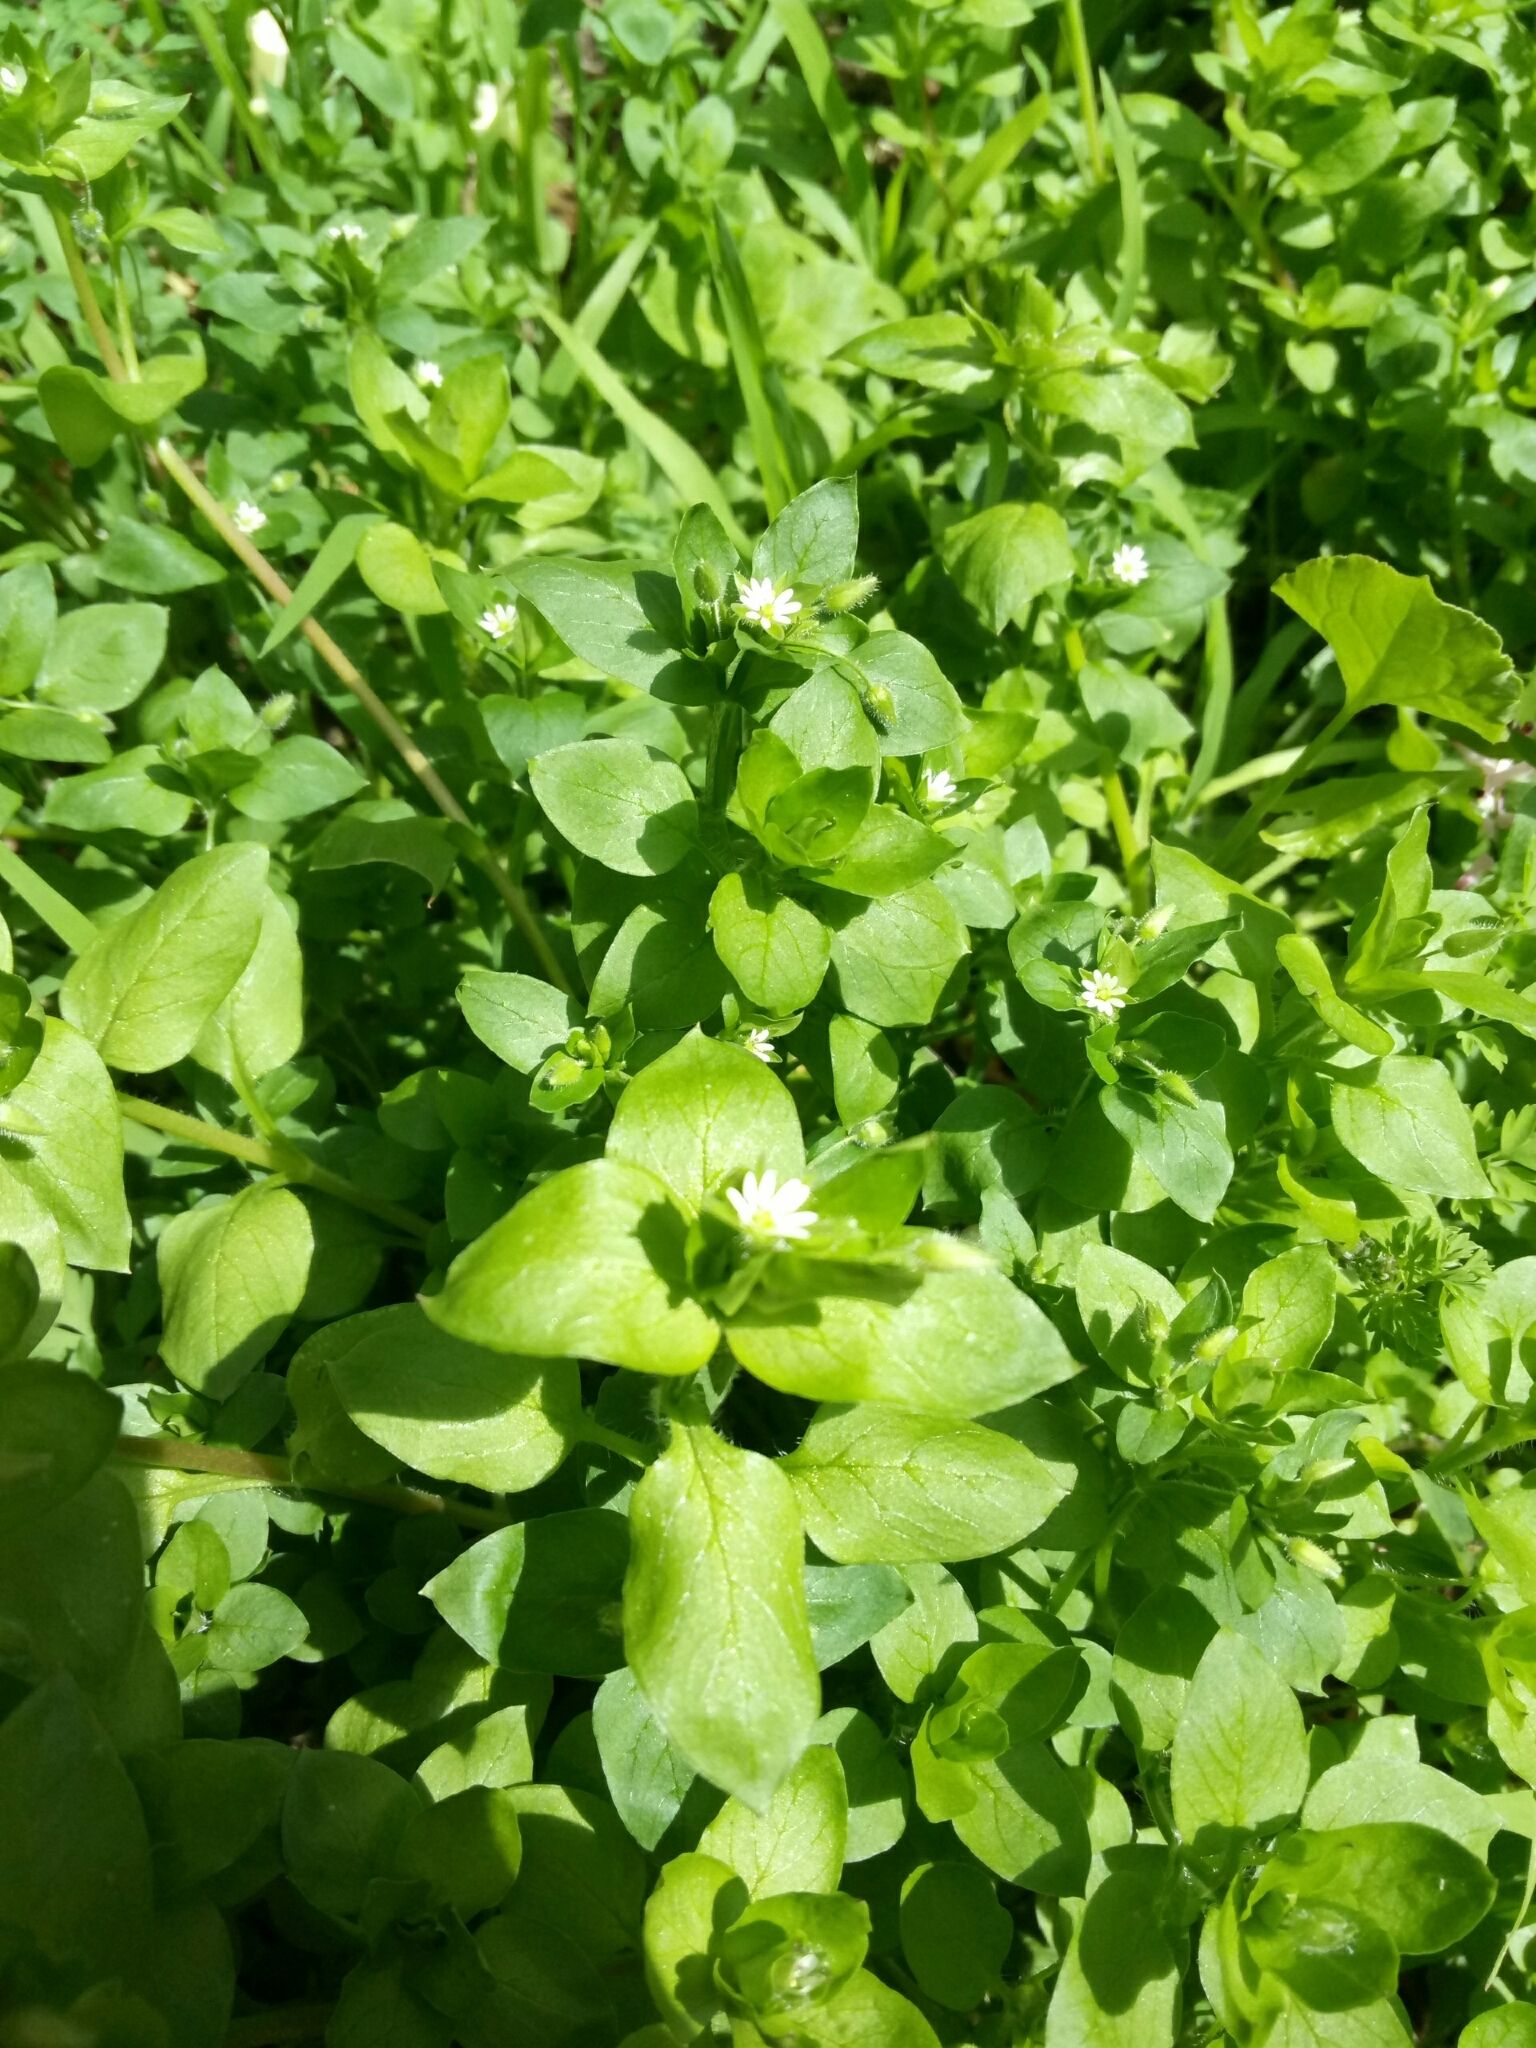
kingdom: Plantae
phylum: Tracheophyta
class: Magnoliopsida
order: Caryophyllales
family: Caryophyllaceae
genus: Stellaria
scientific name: Stellaria media
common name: Common chickweed
